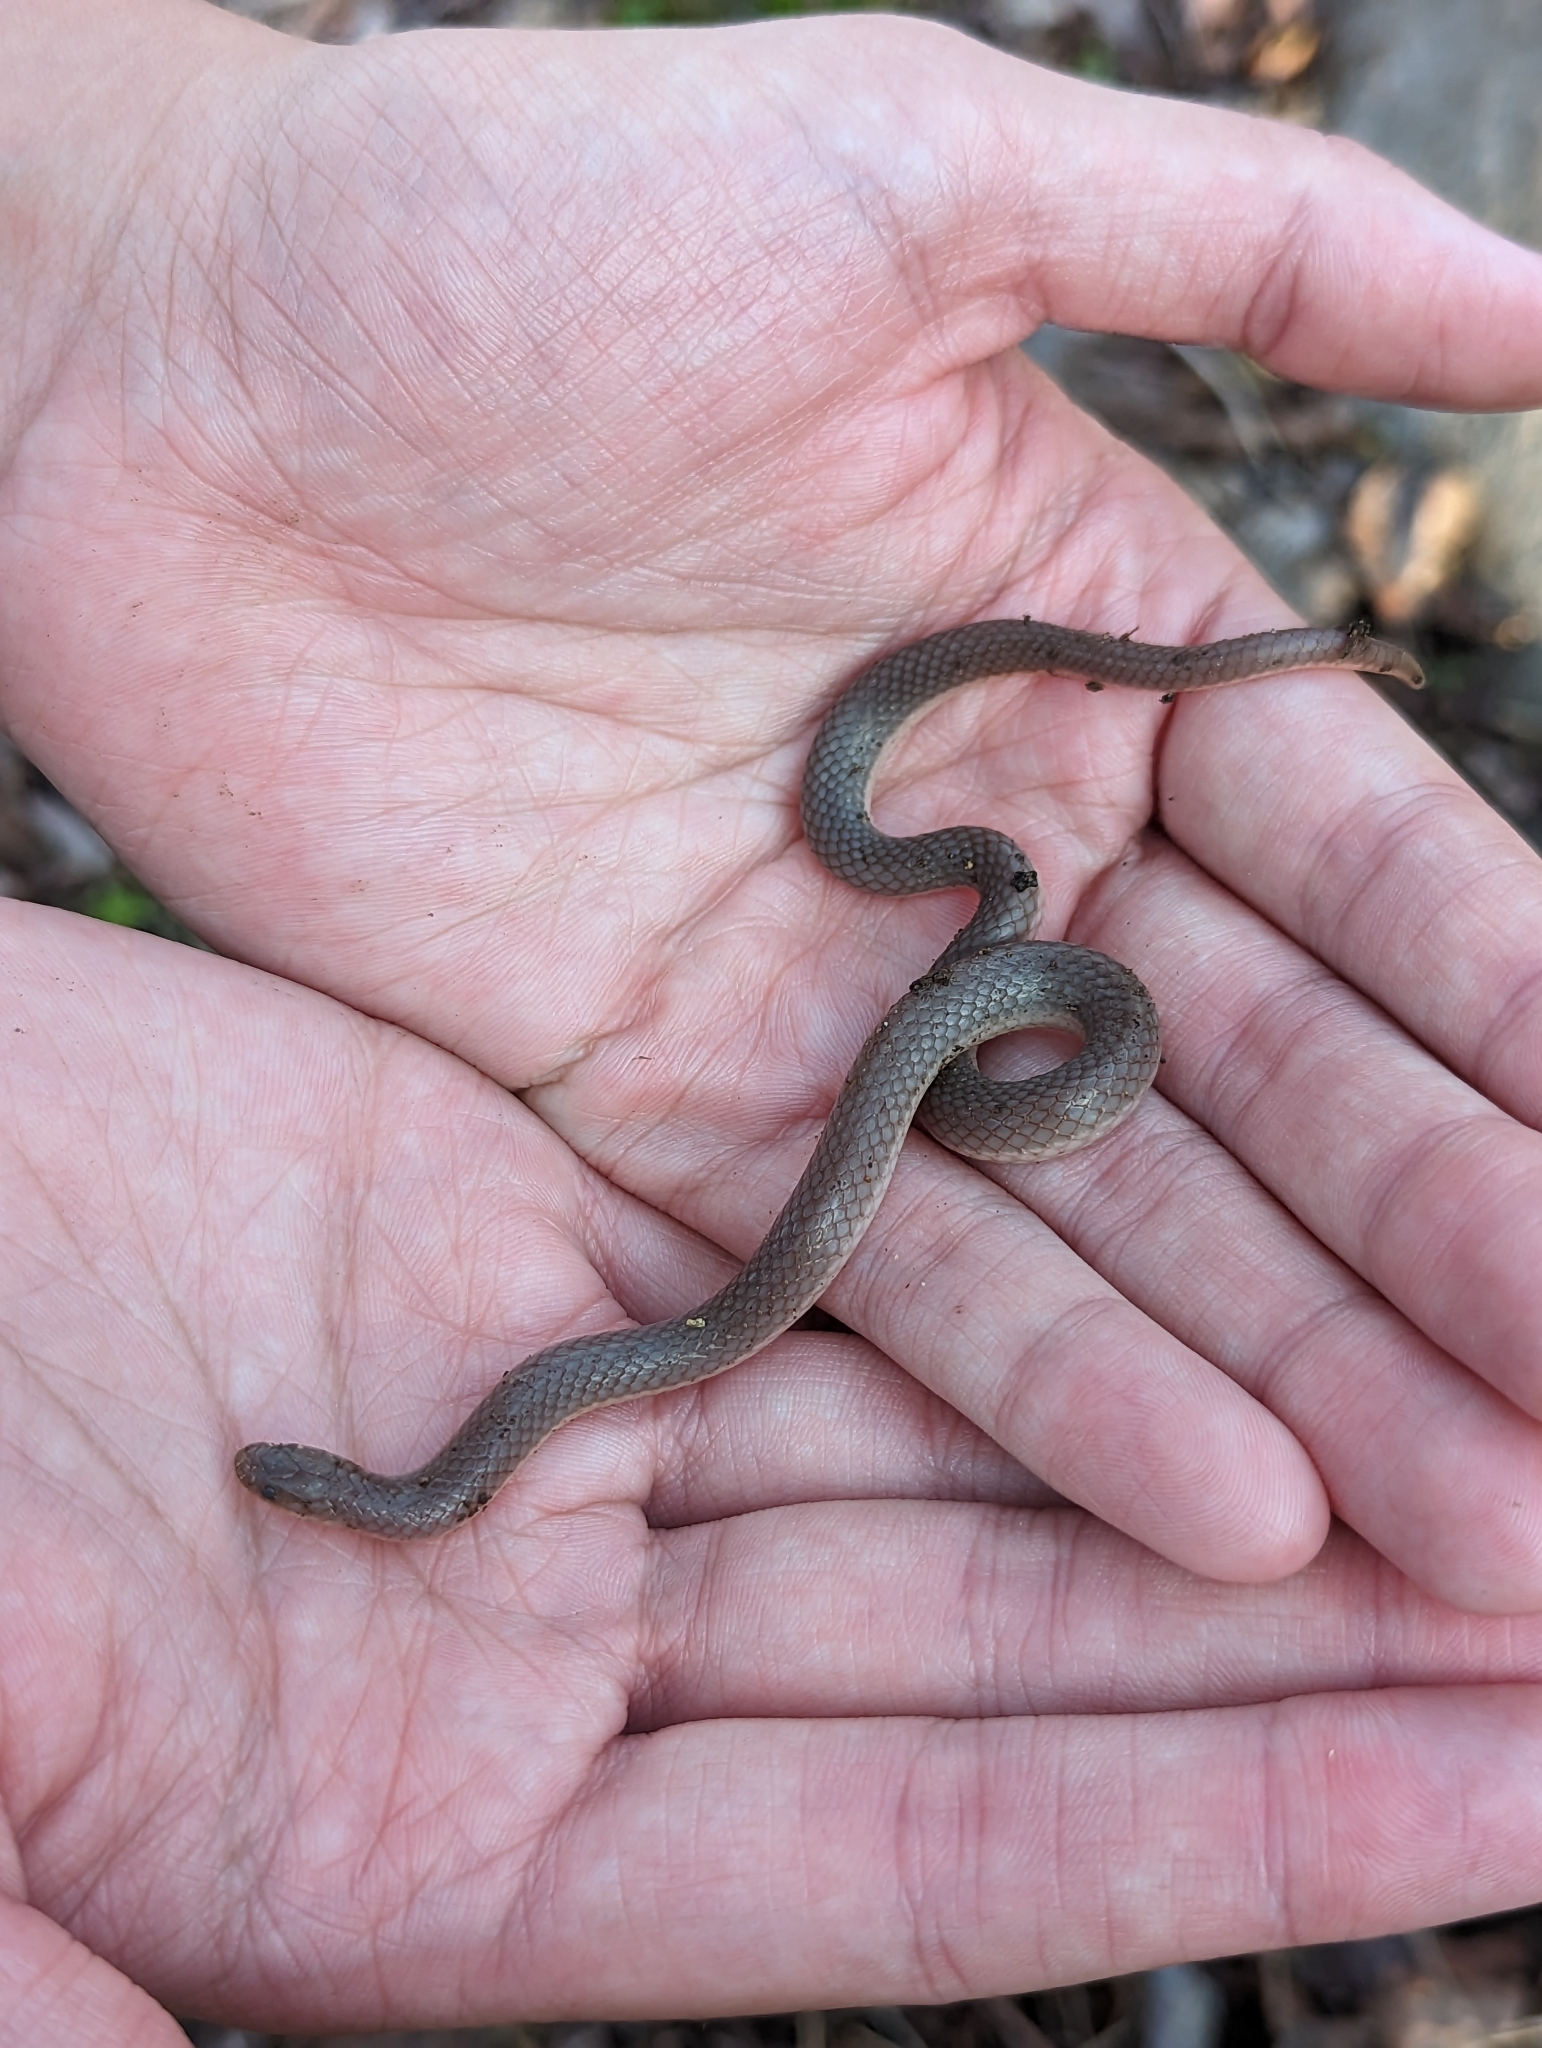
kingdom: Animalia
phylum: Chordata
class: Squamata
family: Colubridae
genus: Carphophis
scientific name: Carphophis amoenus
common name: Eastern worm snake
